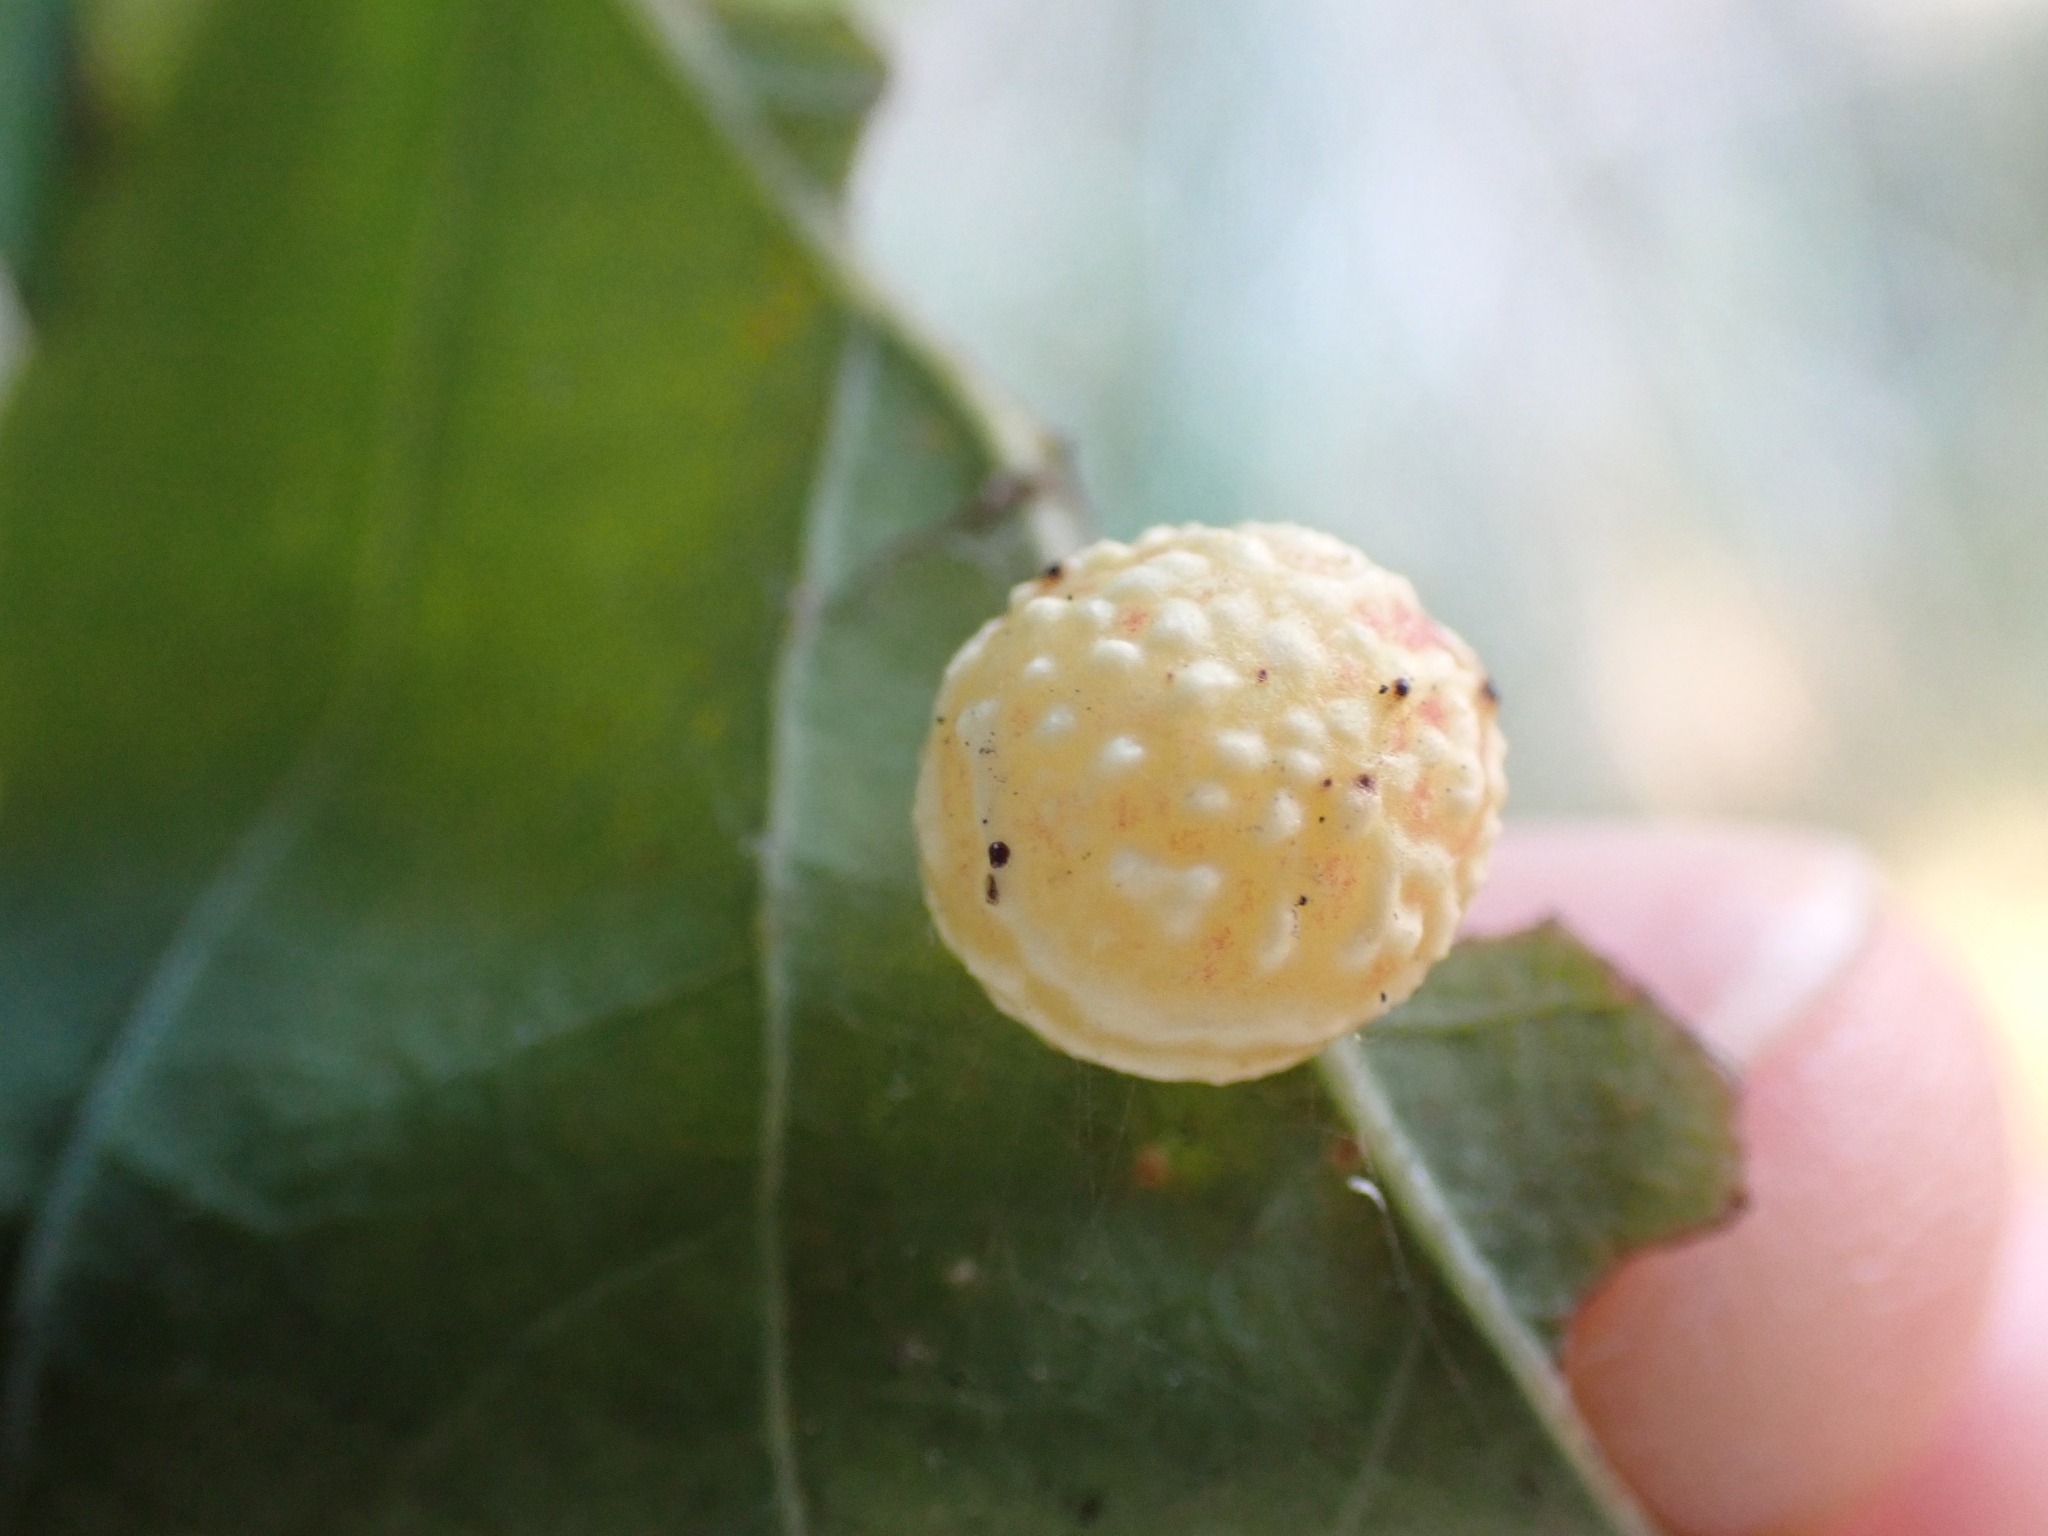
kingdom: Animalia
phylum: Arthropoda
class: Insecta
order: Hymenoptera
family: Cynipidae
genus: Cynips
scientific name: Cynips longiventris
